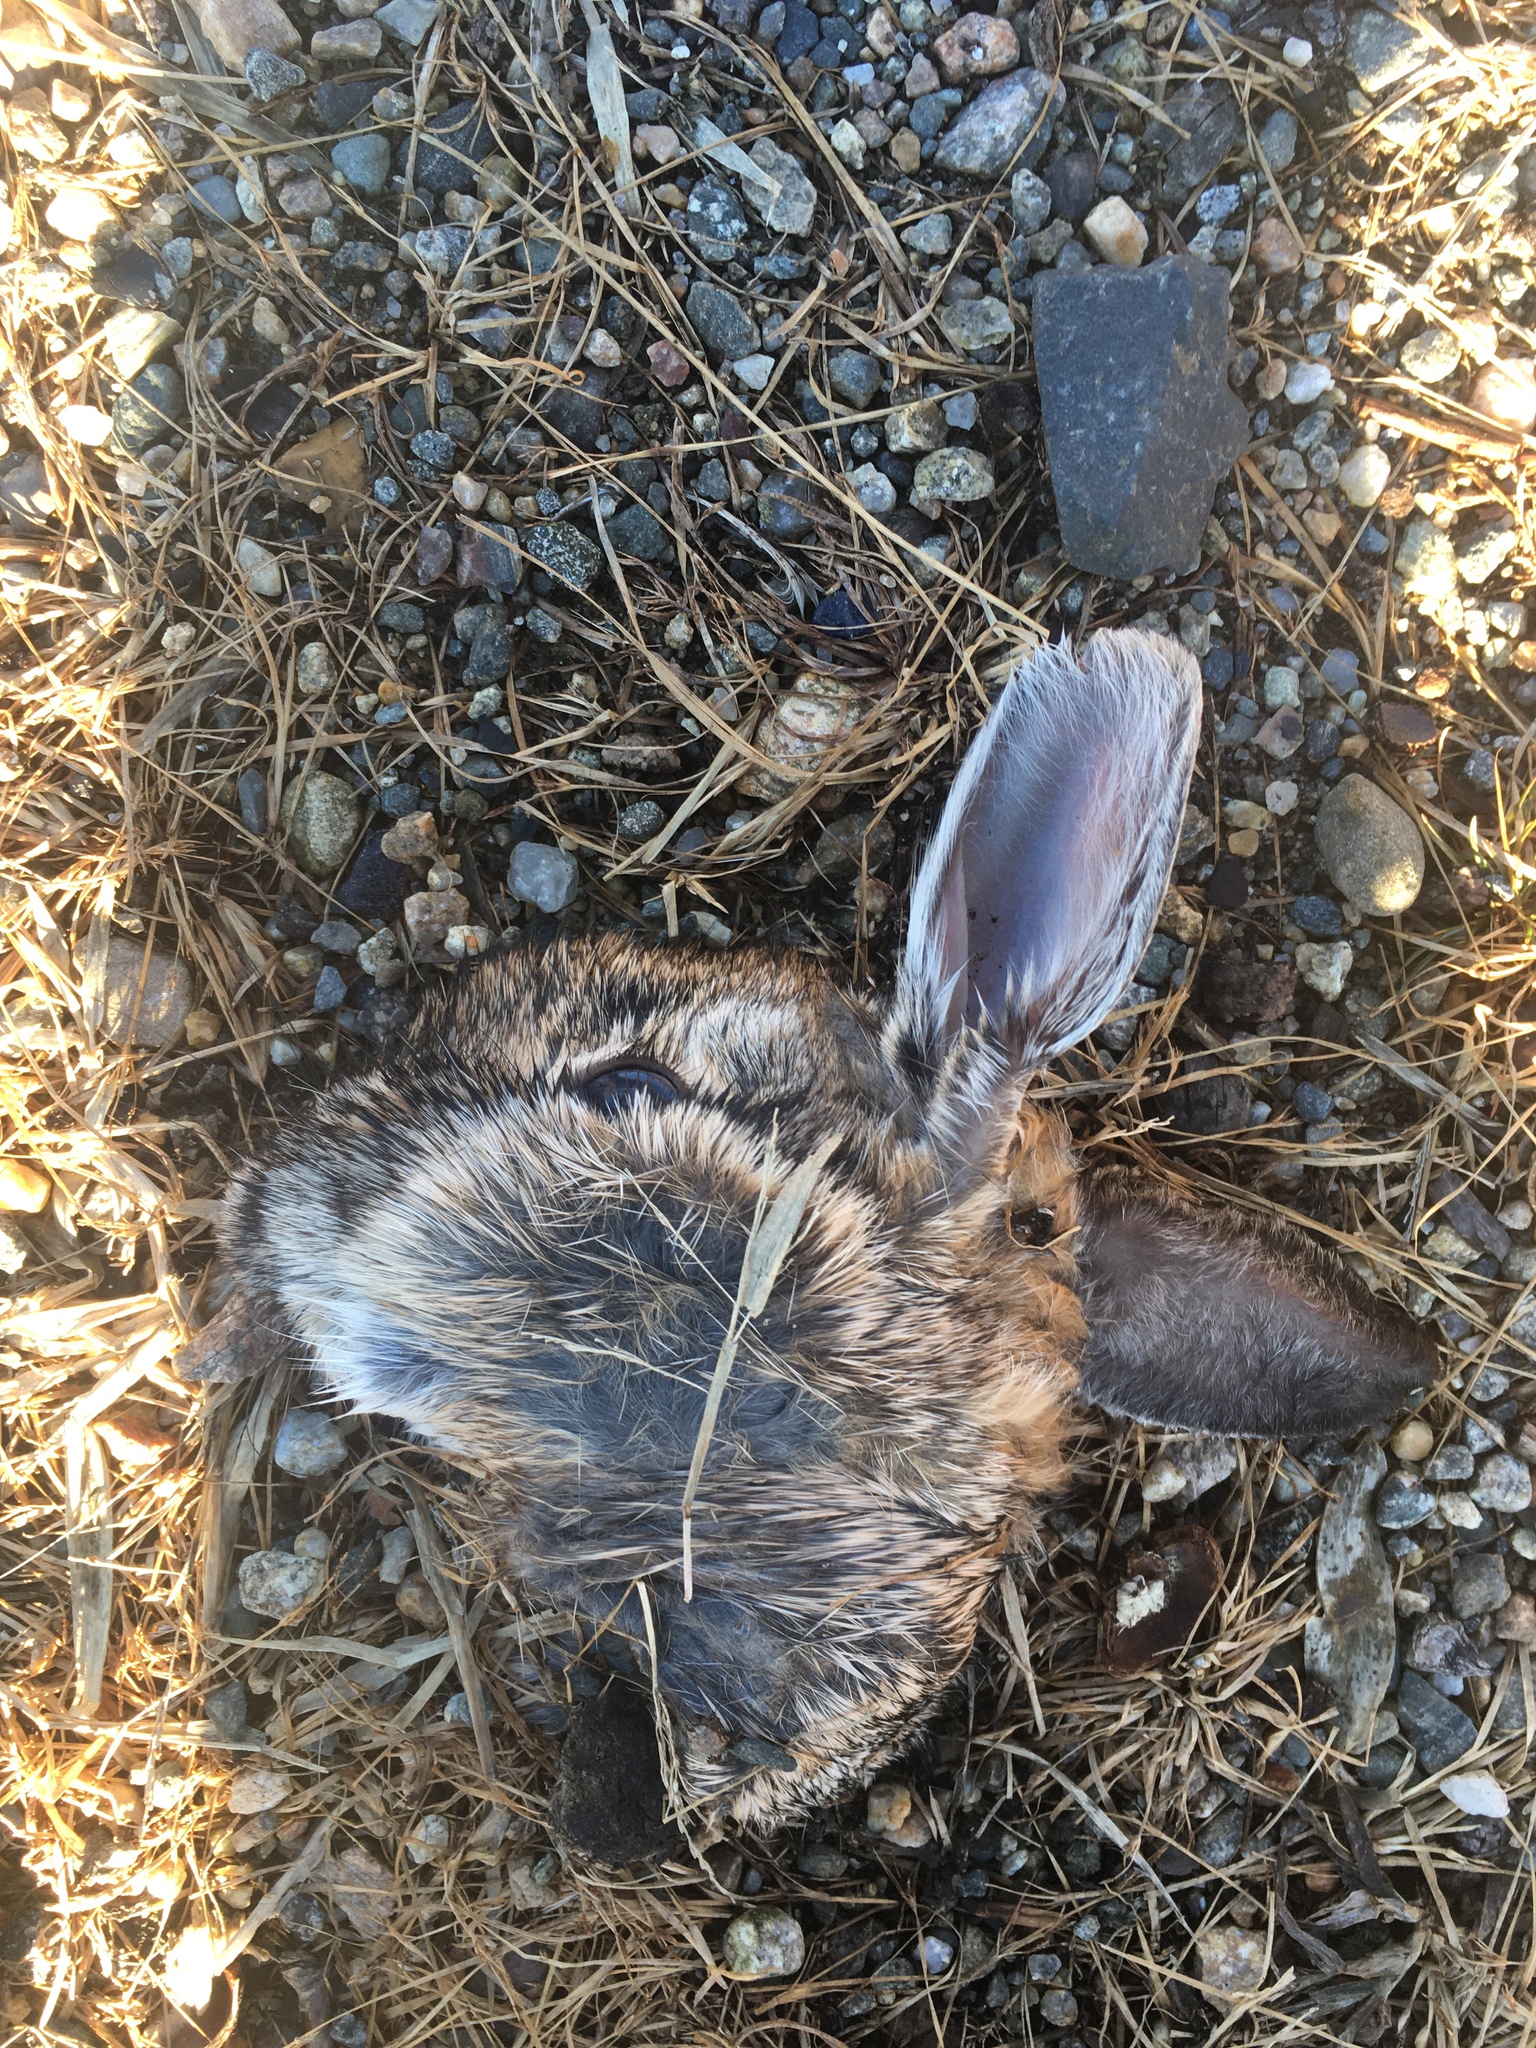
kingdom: Animalia
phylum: Chordata
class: Mammalia
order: Lagomorpha
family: Leporidae
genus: Sylvilagus
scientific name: Sylvilagus floridanus
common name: Eastern cottontail
